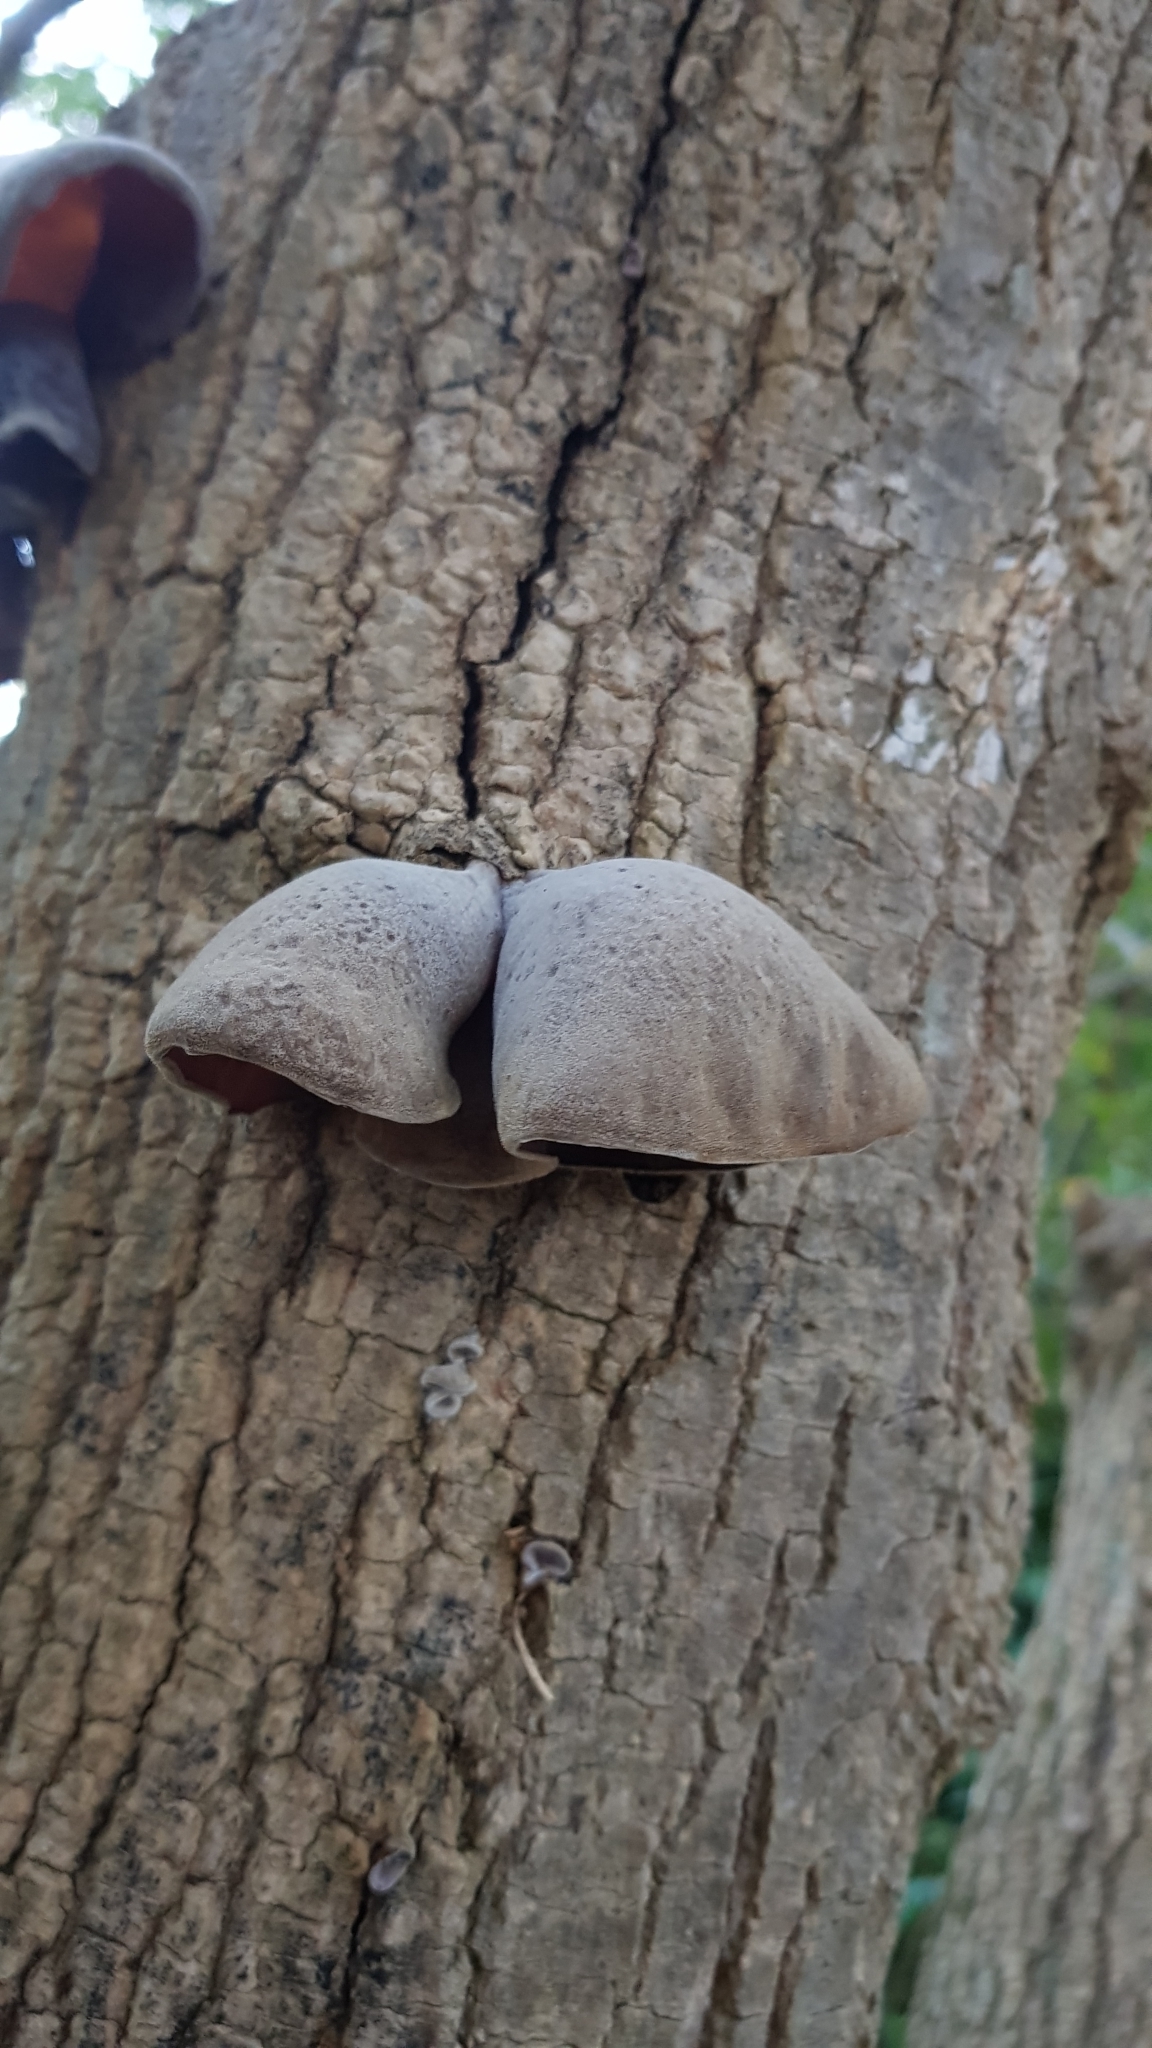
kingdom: Fungi
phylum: Basidiomycota
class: Agaricomycetes
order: Auriculariales
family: Auriculariaceae
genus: Auricularia
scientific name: Auricularia cornea
